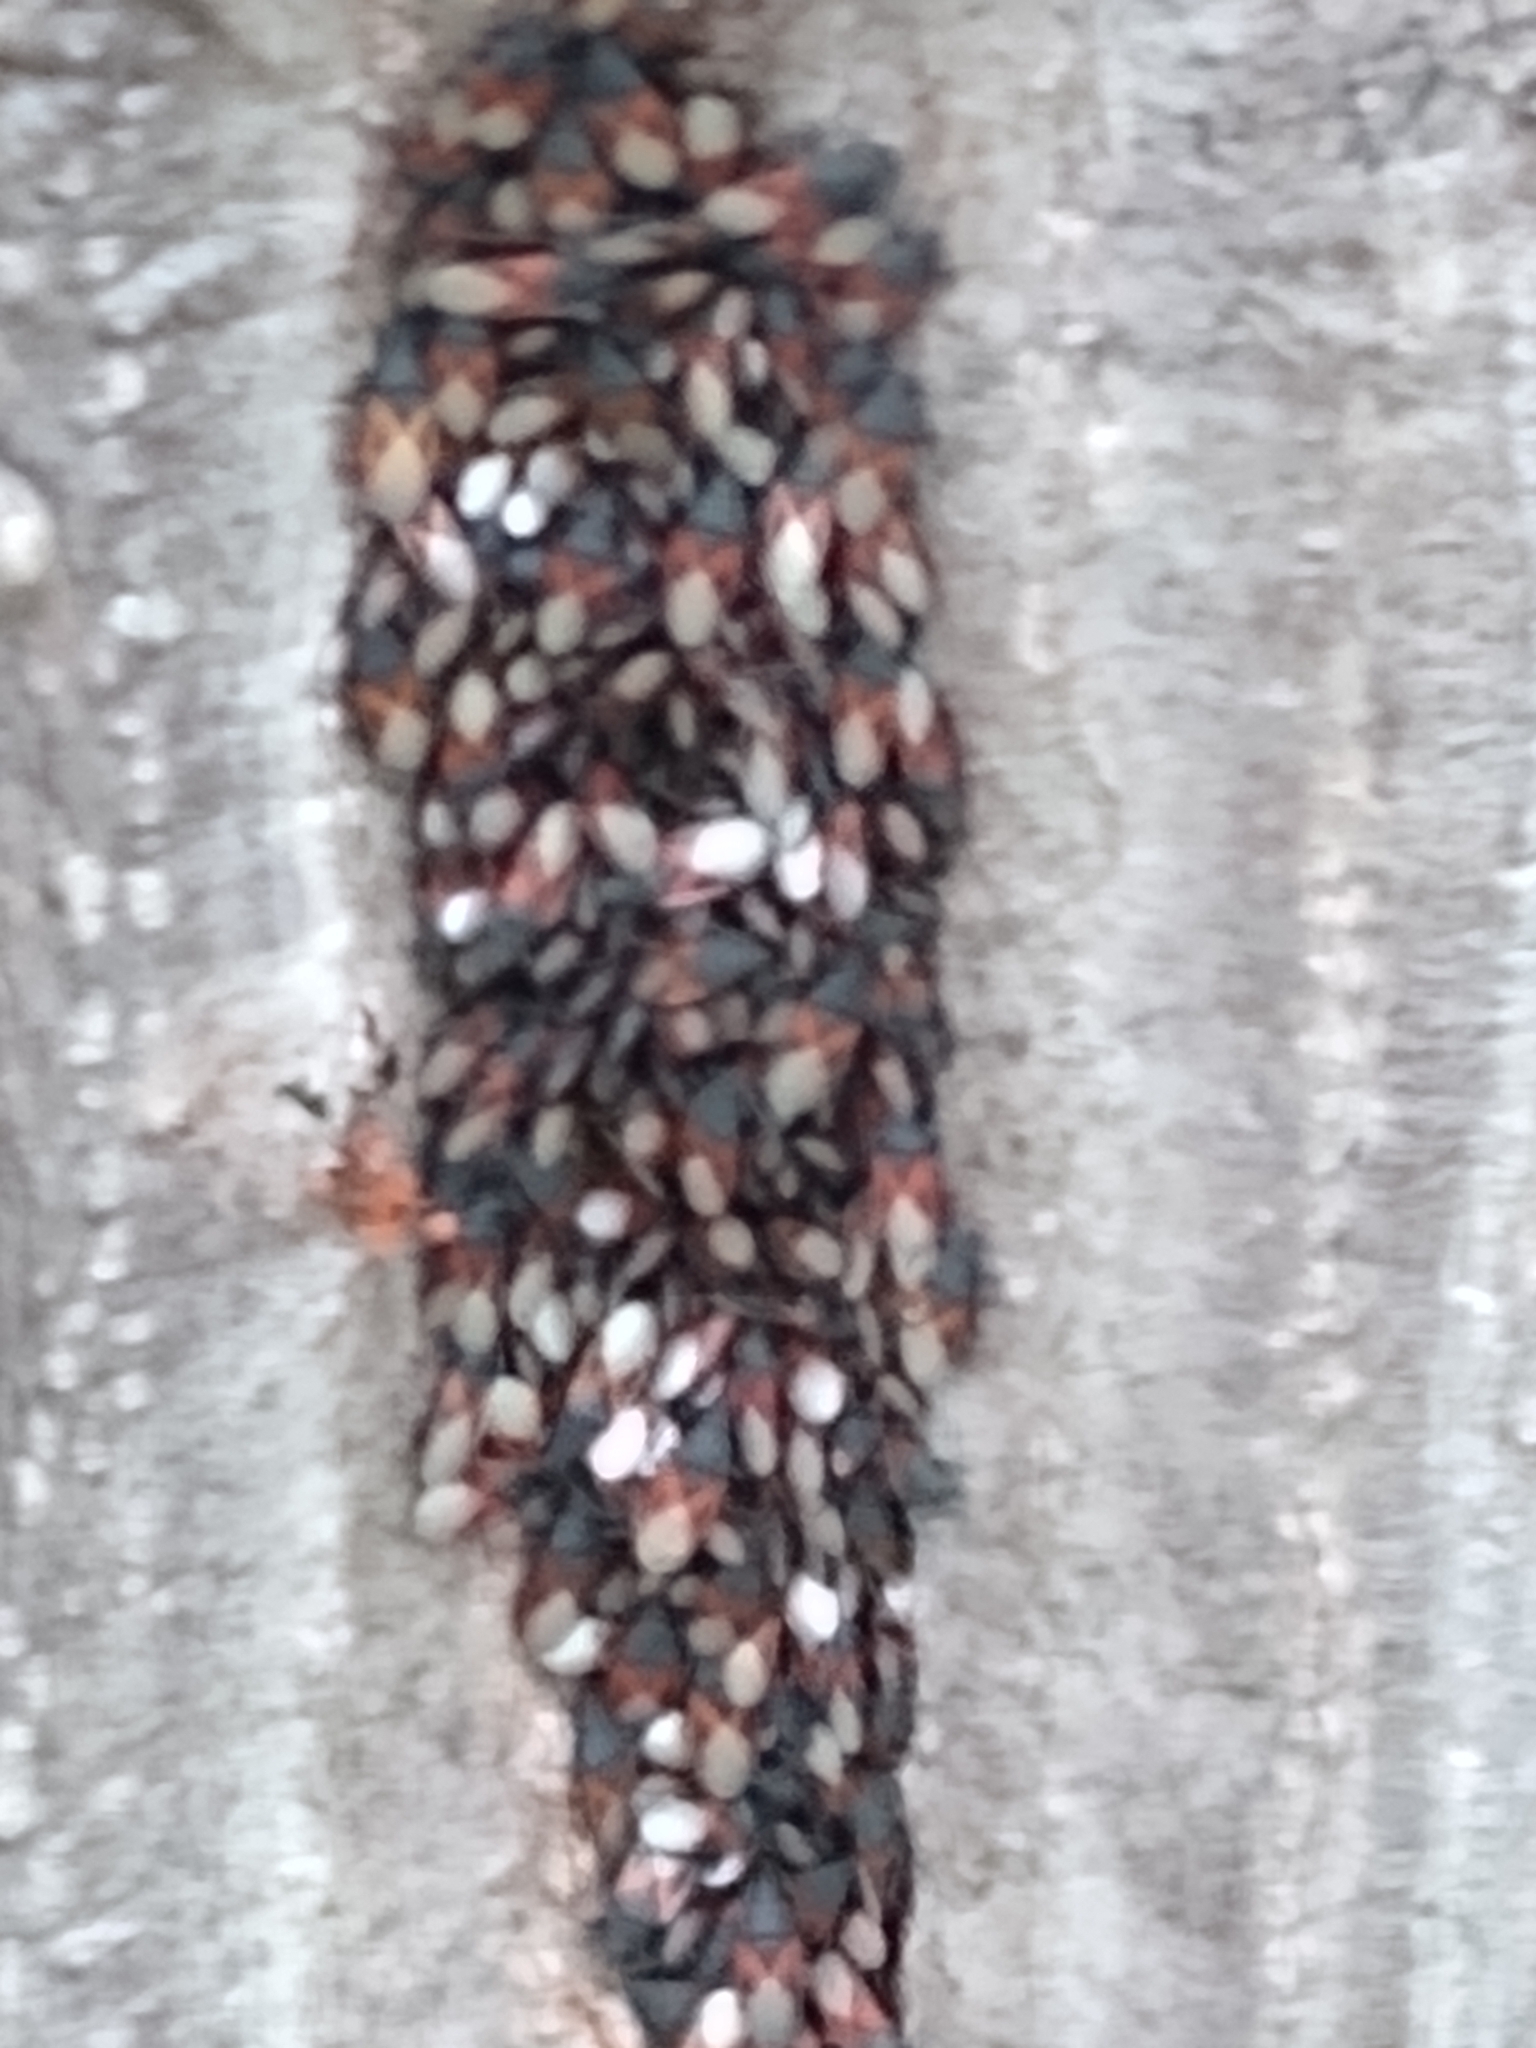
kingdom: Animalia
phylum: Arthropoda
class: Insecta
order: Hemiptera
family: Oxycarenidae
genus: Oxycarenus
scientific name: Oxycarenus lavaterae
